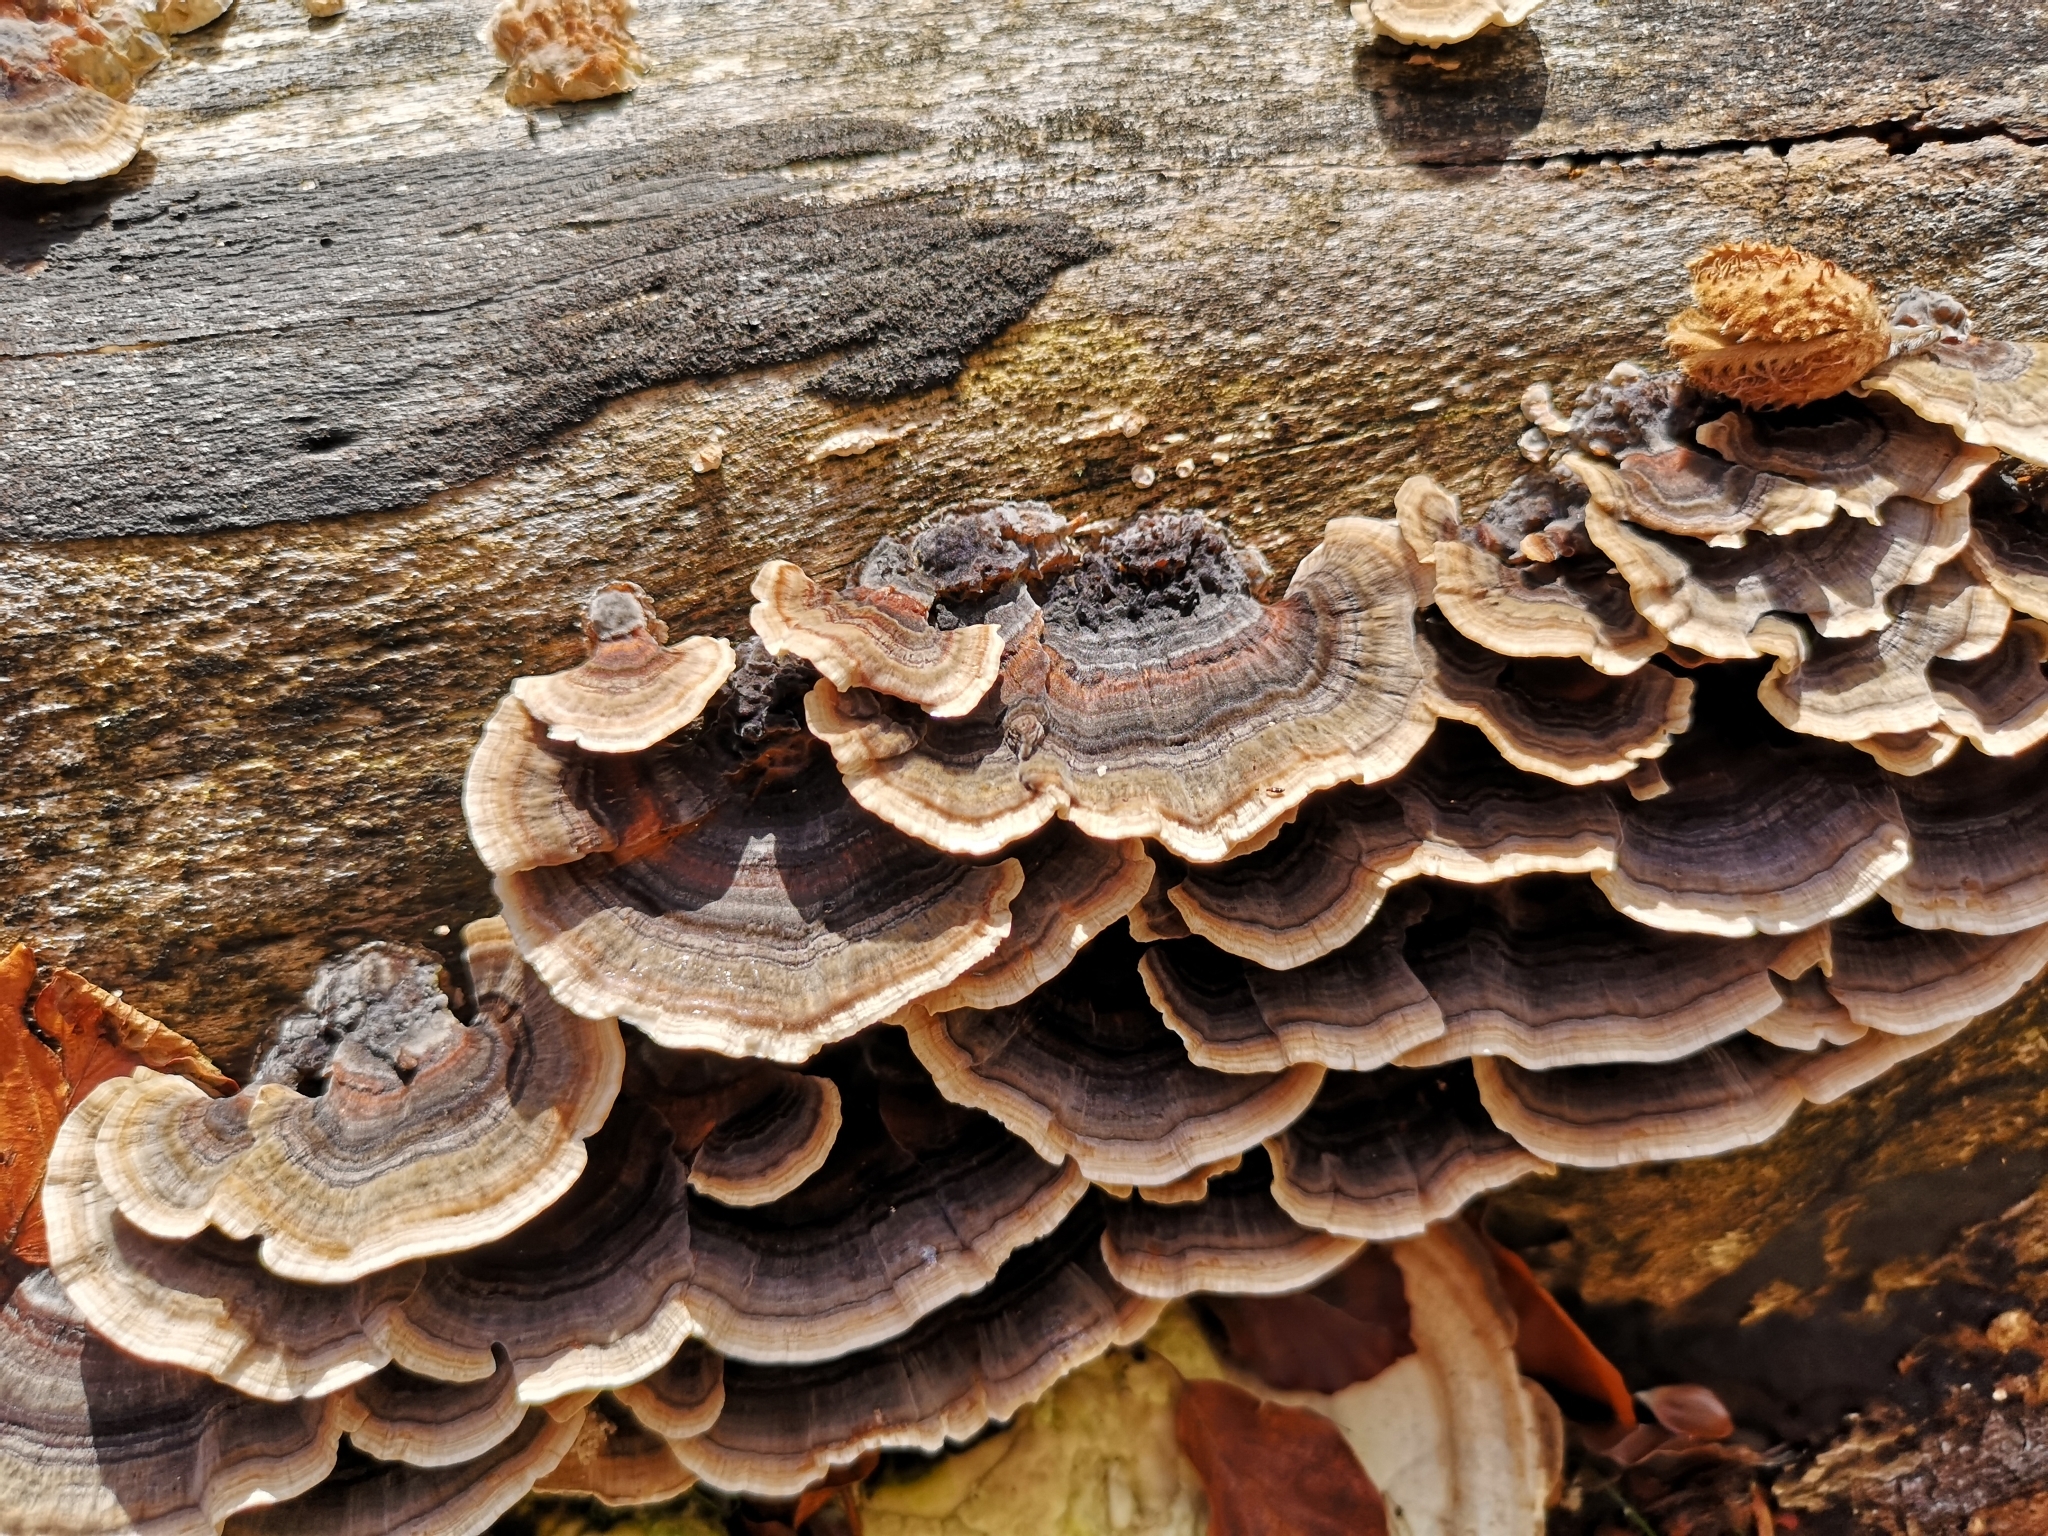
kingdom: Fungi
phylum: Basidiomycota
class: Agaricomycetes
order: Polyporales
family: Polyporaceae
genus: Trametes
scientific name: Trametes versicolor
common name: Turkeytail
